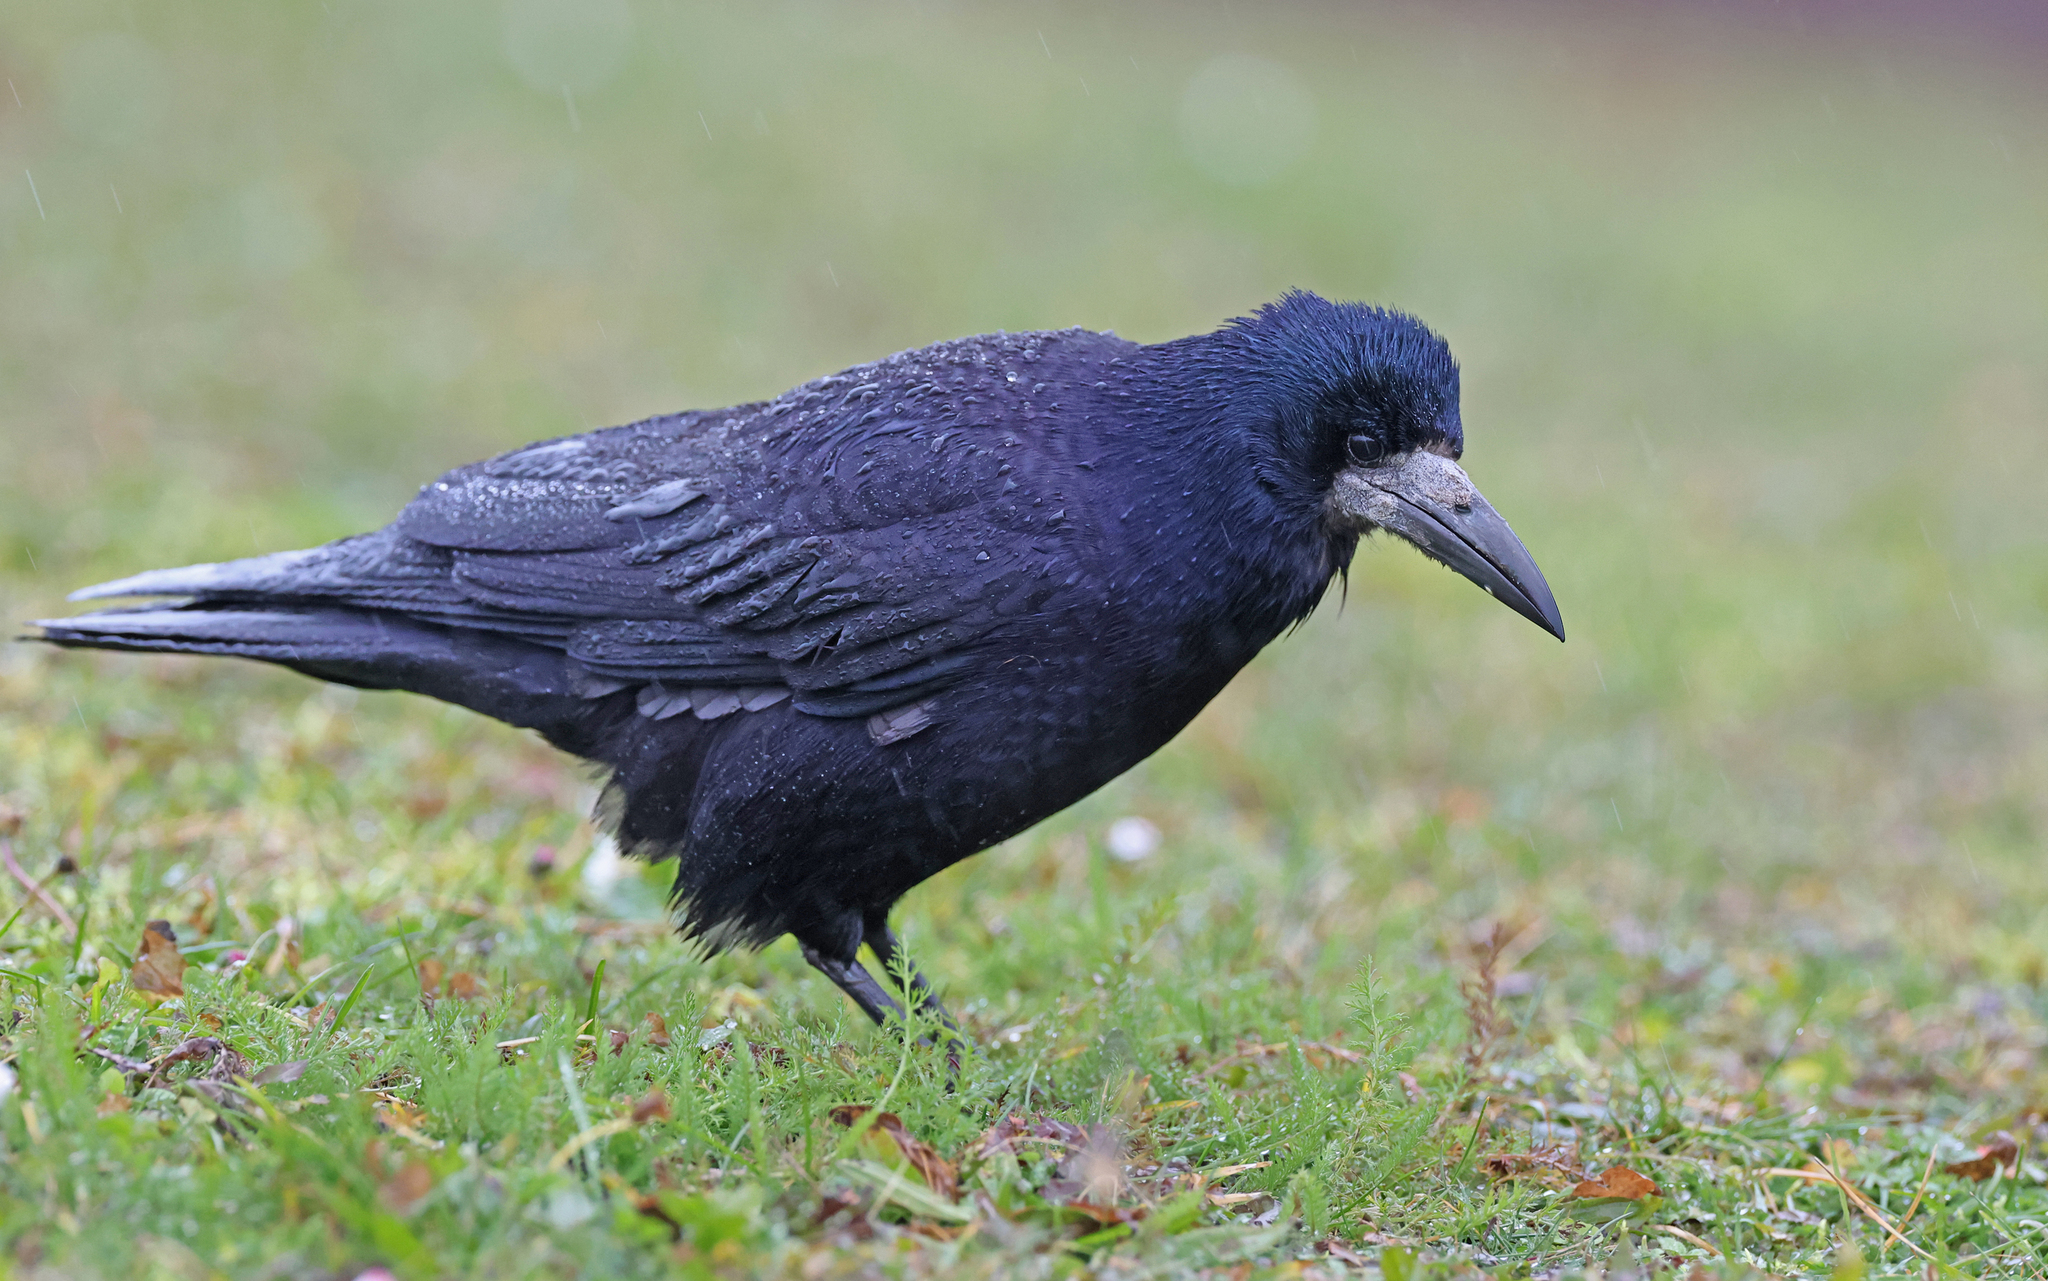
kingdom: Animalia
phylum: Chordata
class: Aves
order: Passeriformes
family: Corvidae
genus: Corvus
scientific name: Corvus frugilegus
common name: Rook
